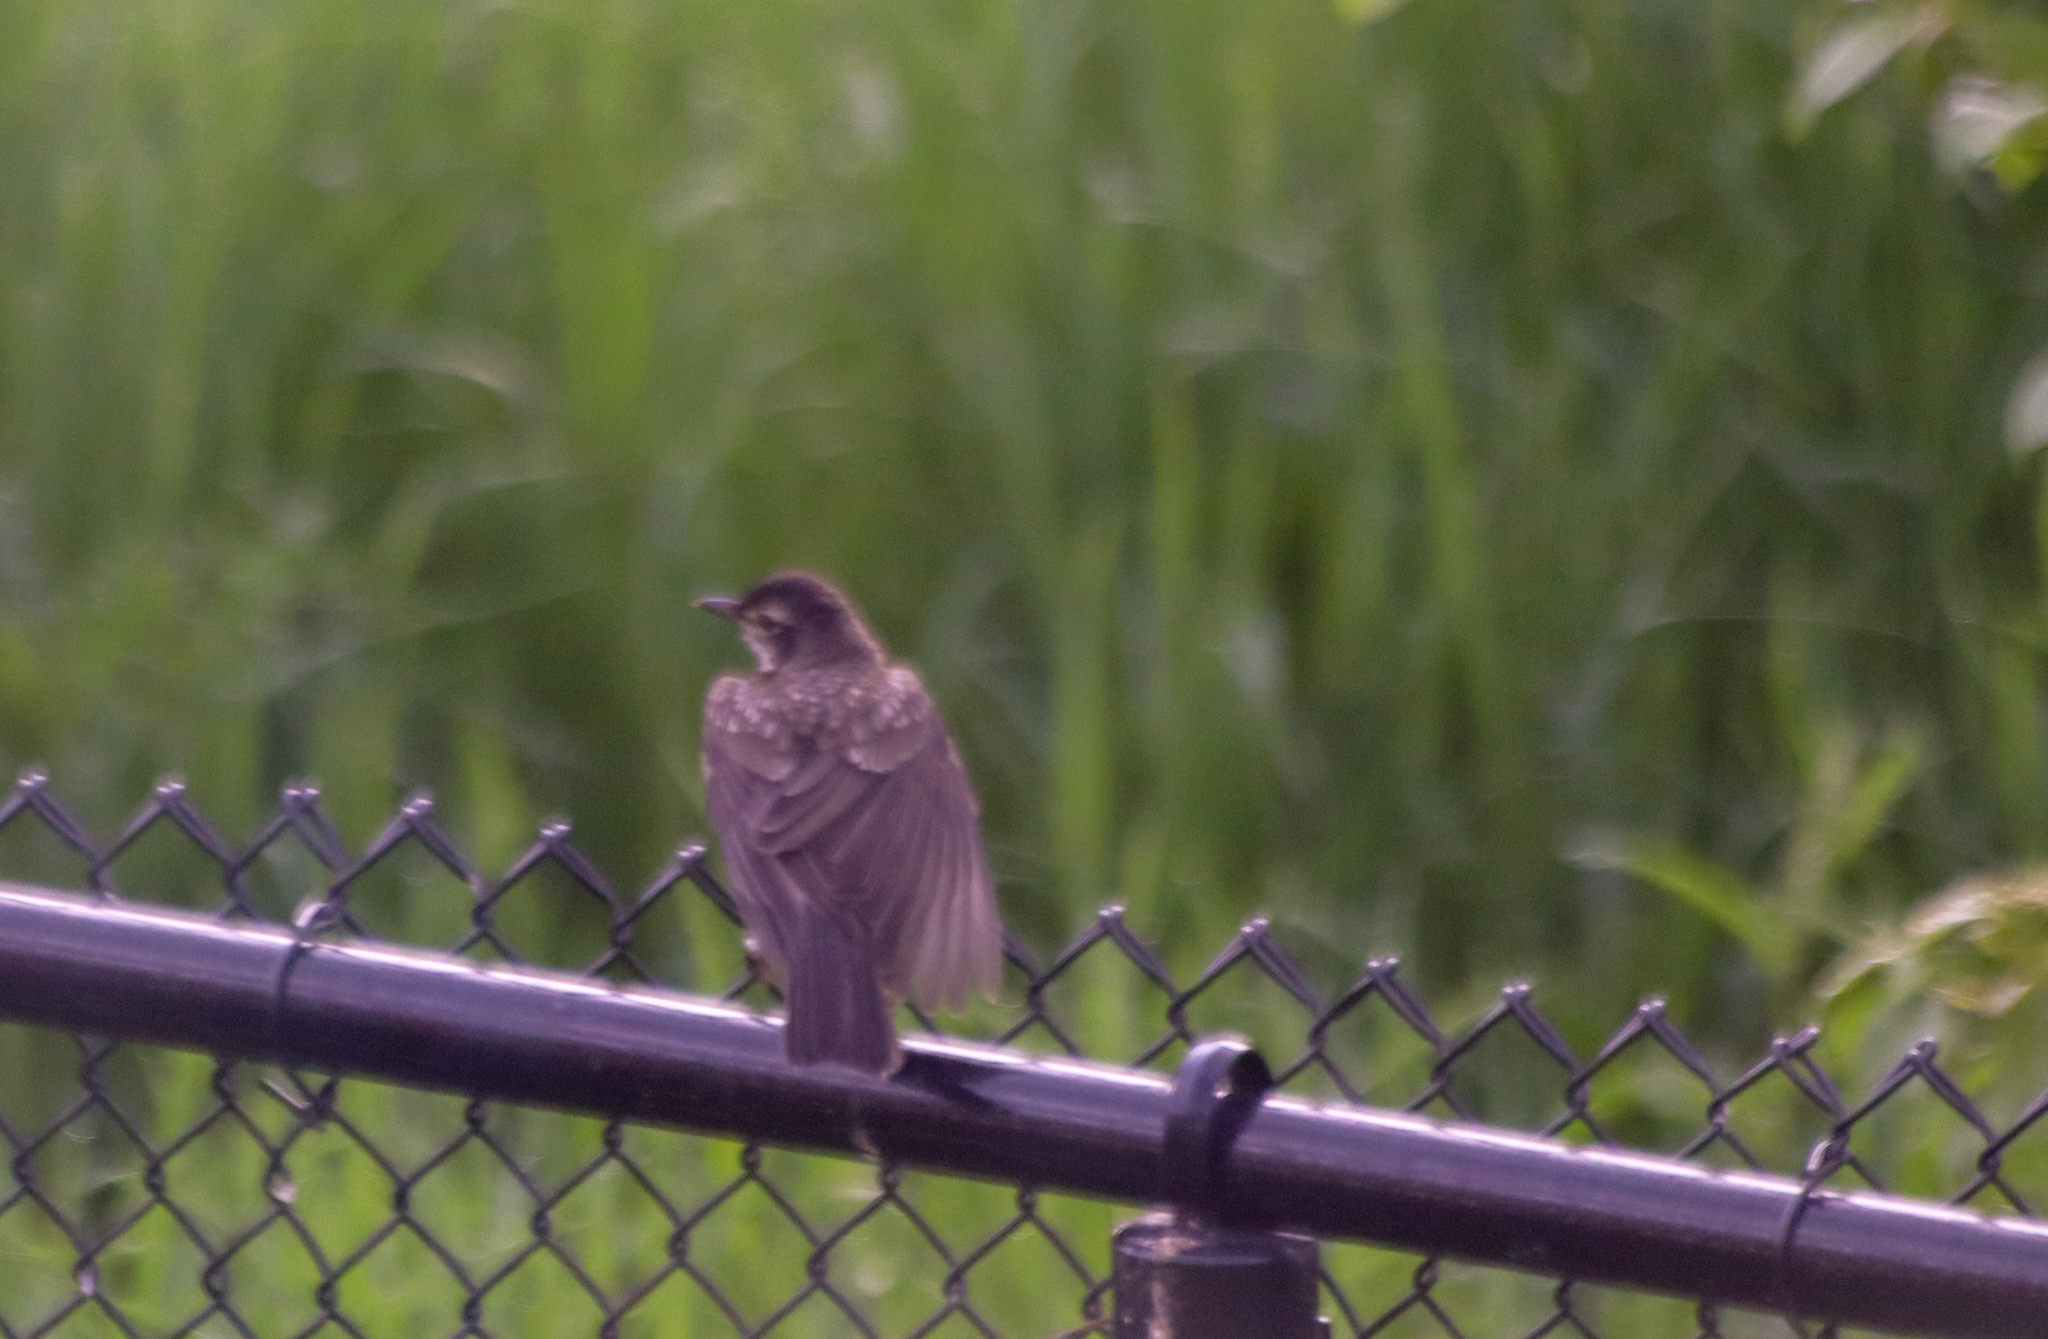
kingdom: Animalia
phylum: Chordata
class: Aves
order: Passeriformes
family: Turdidae
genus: Turdus
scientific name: Turdus migratorius
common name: American robin
